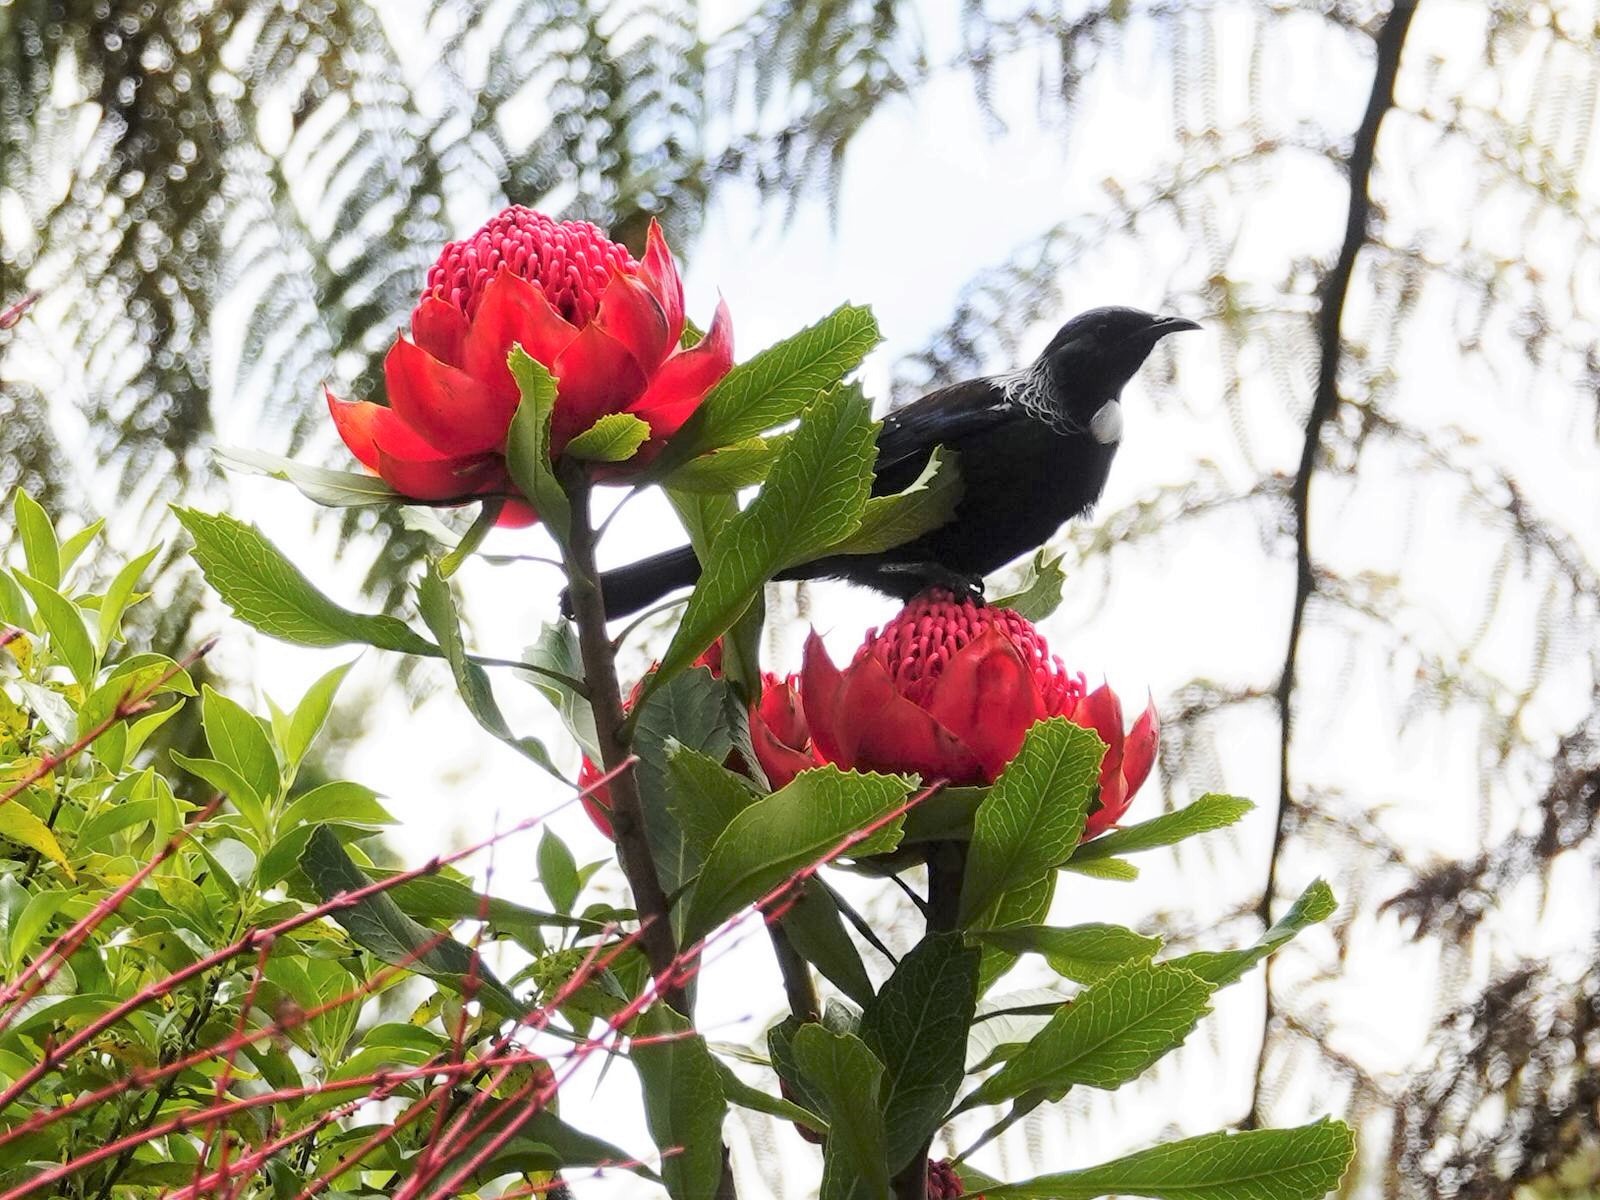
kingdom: Animalia
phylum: Chordata
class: Aves
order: Passeriformes
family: Meliphagidae
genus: Prosthemadera
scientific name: Prosthemadera novaeseelandiae
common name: Tui
